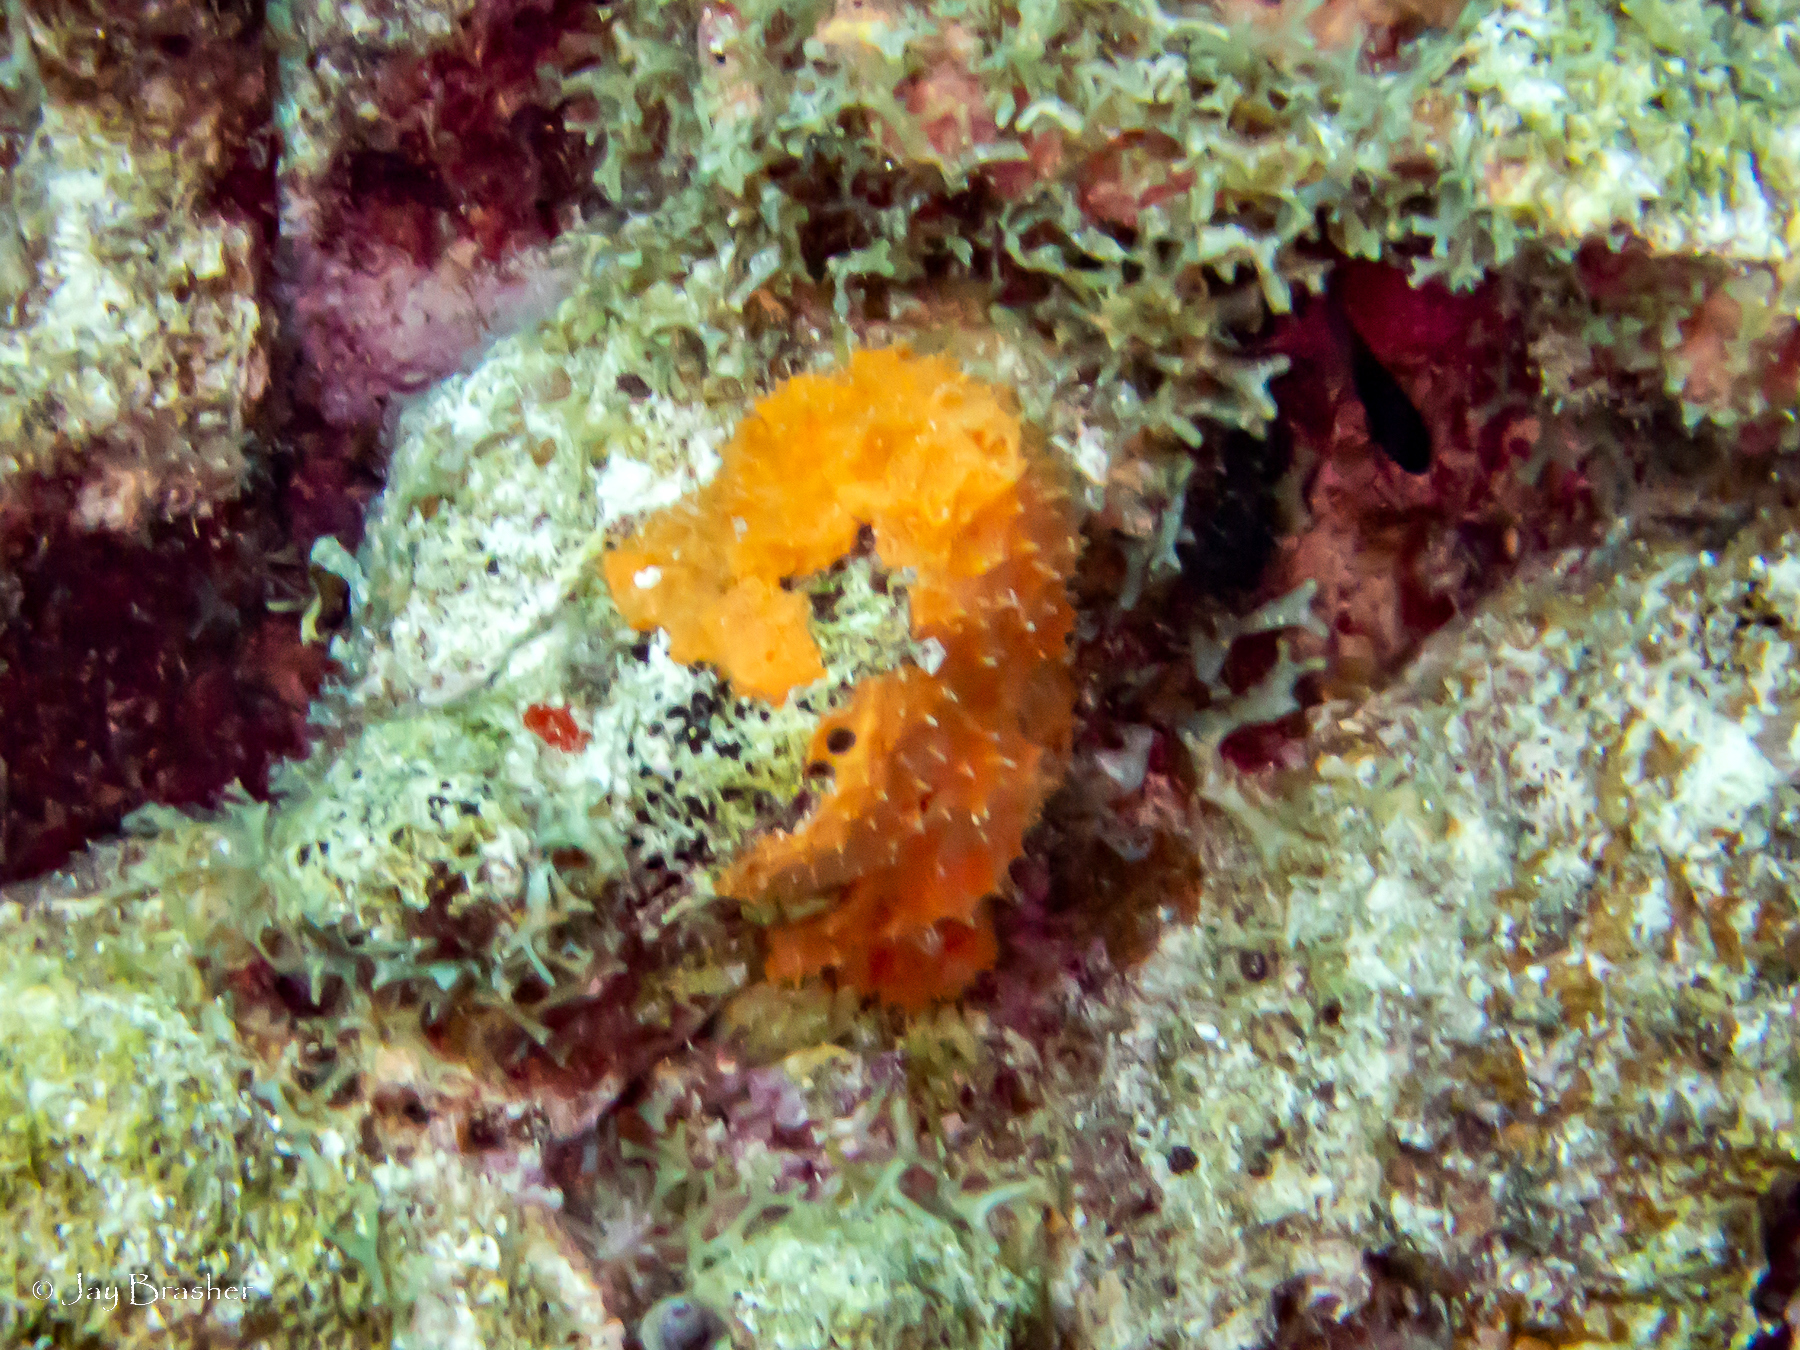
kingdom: Animalia
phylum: Porifera
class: Demospongiae
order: Scopalinida
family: Scopalinidae
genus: Scopalina
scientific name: Scopalina ruetzleri
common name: Orange lumpy encrusting sponge
